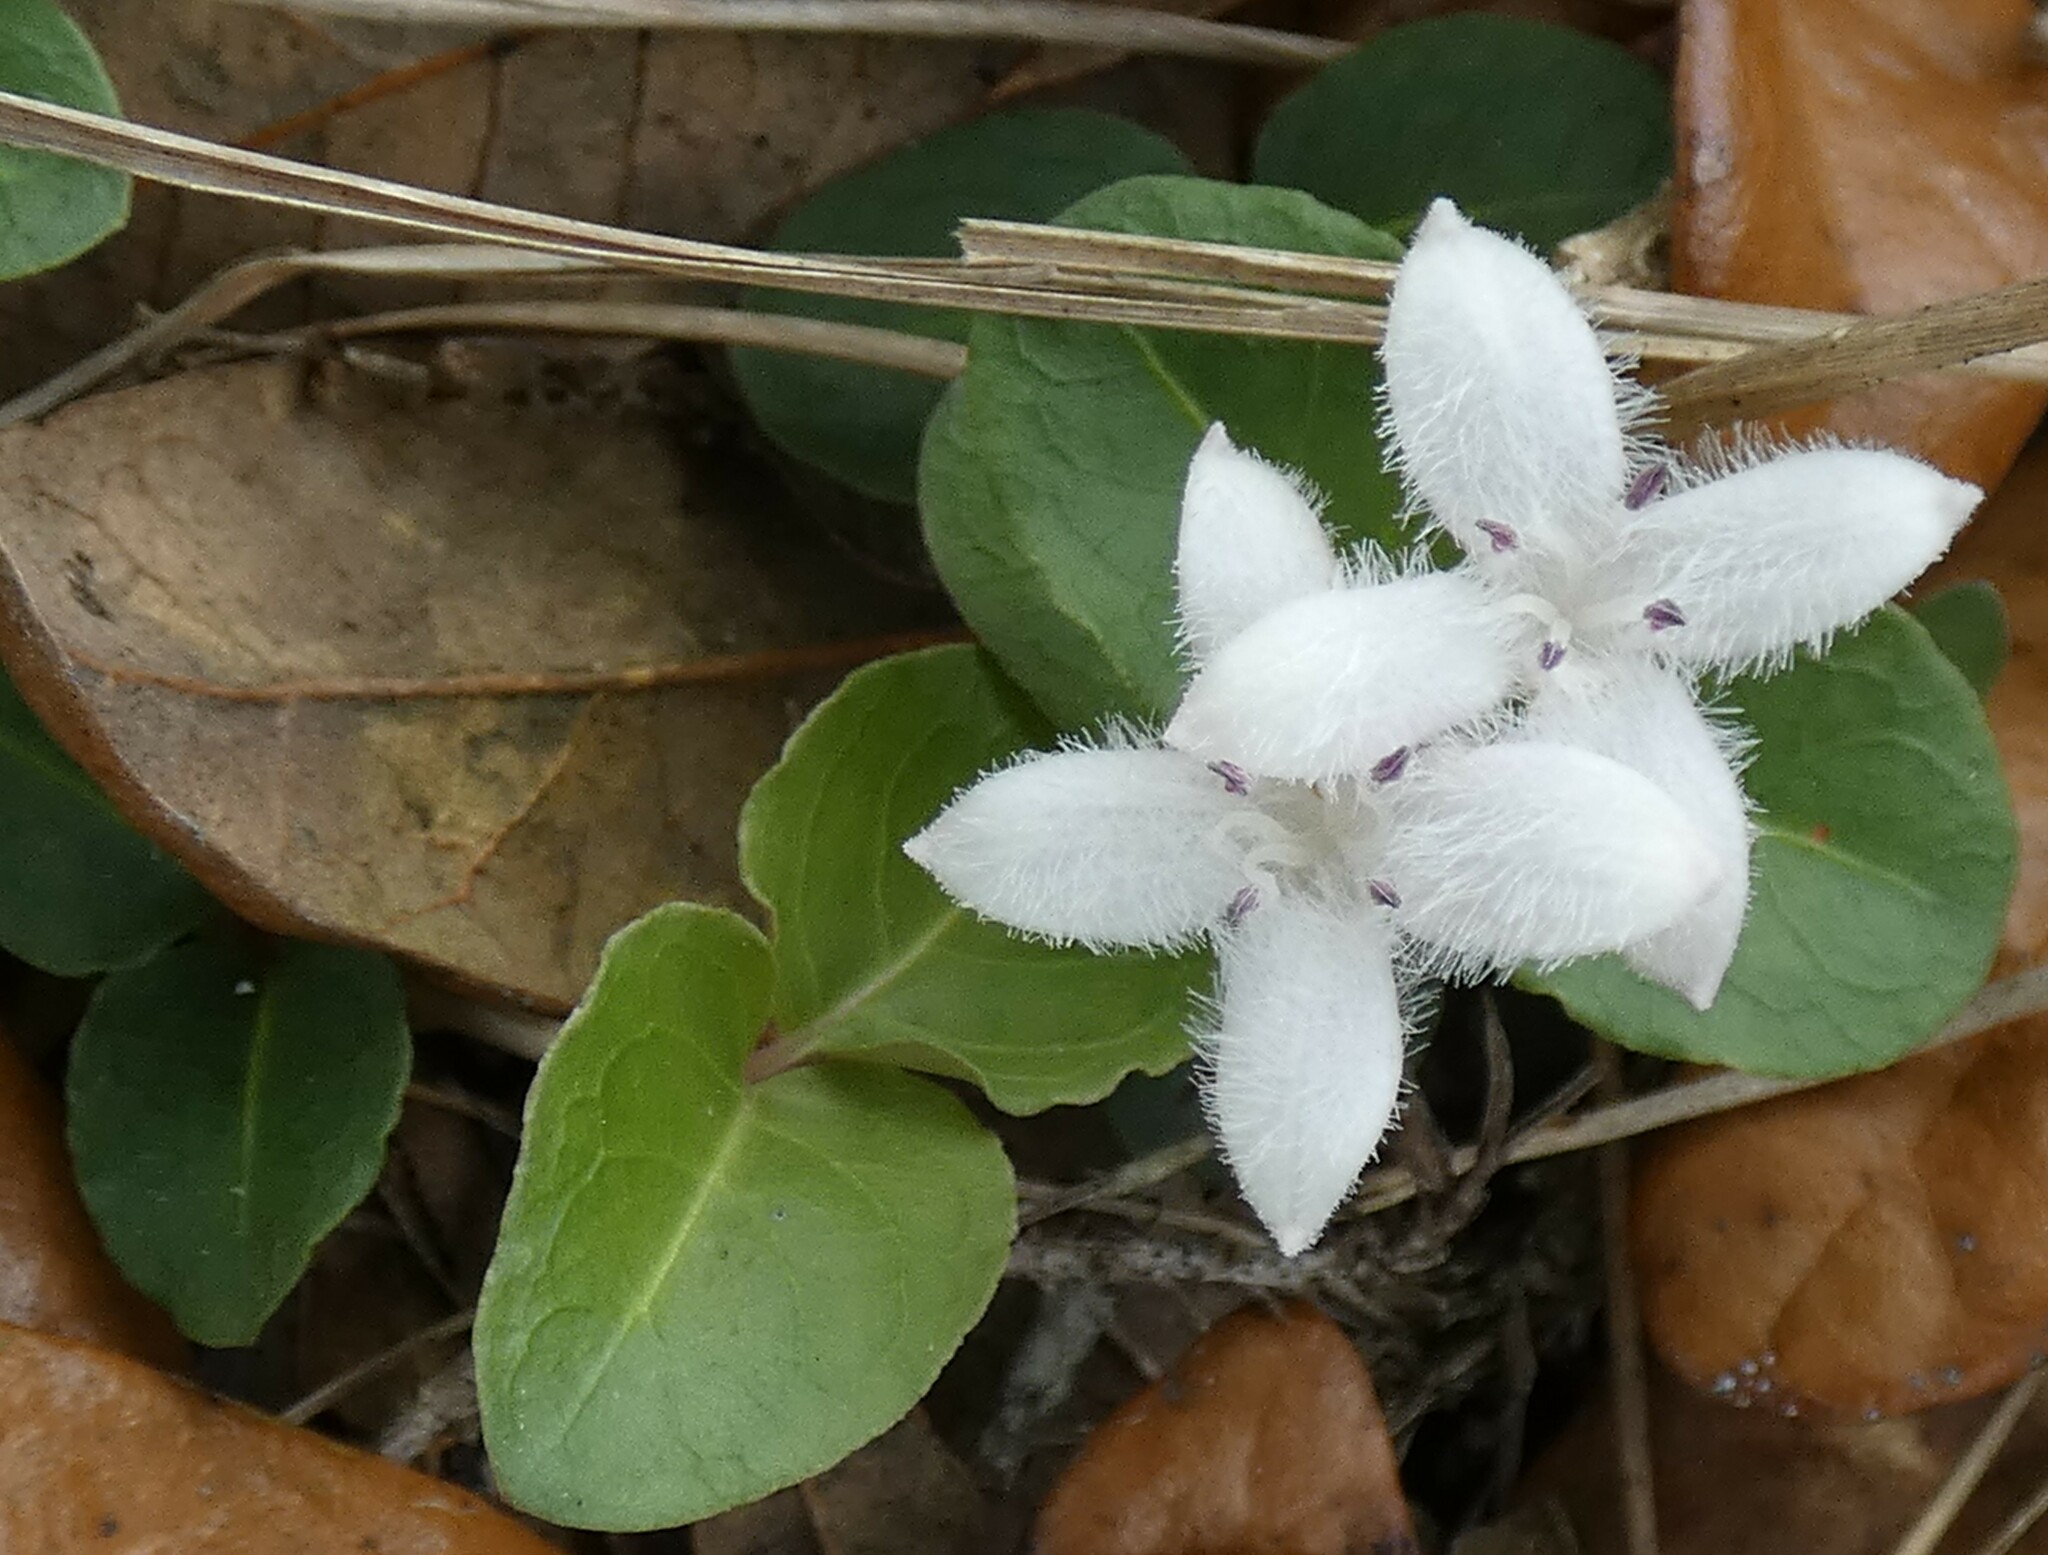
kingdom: Plantae
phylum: Tracheophyta
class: Magnoliopsida
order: Gentianales
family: Rubiaceae
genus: Mitchella
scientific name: Mitchella repens
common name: Partridge-berry
